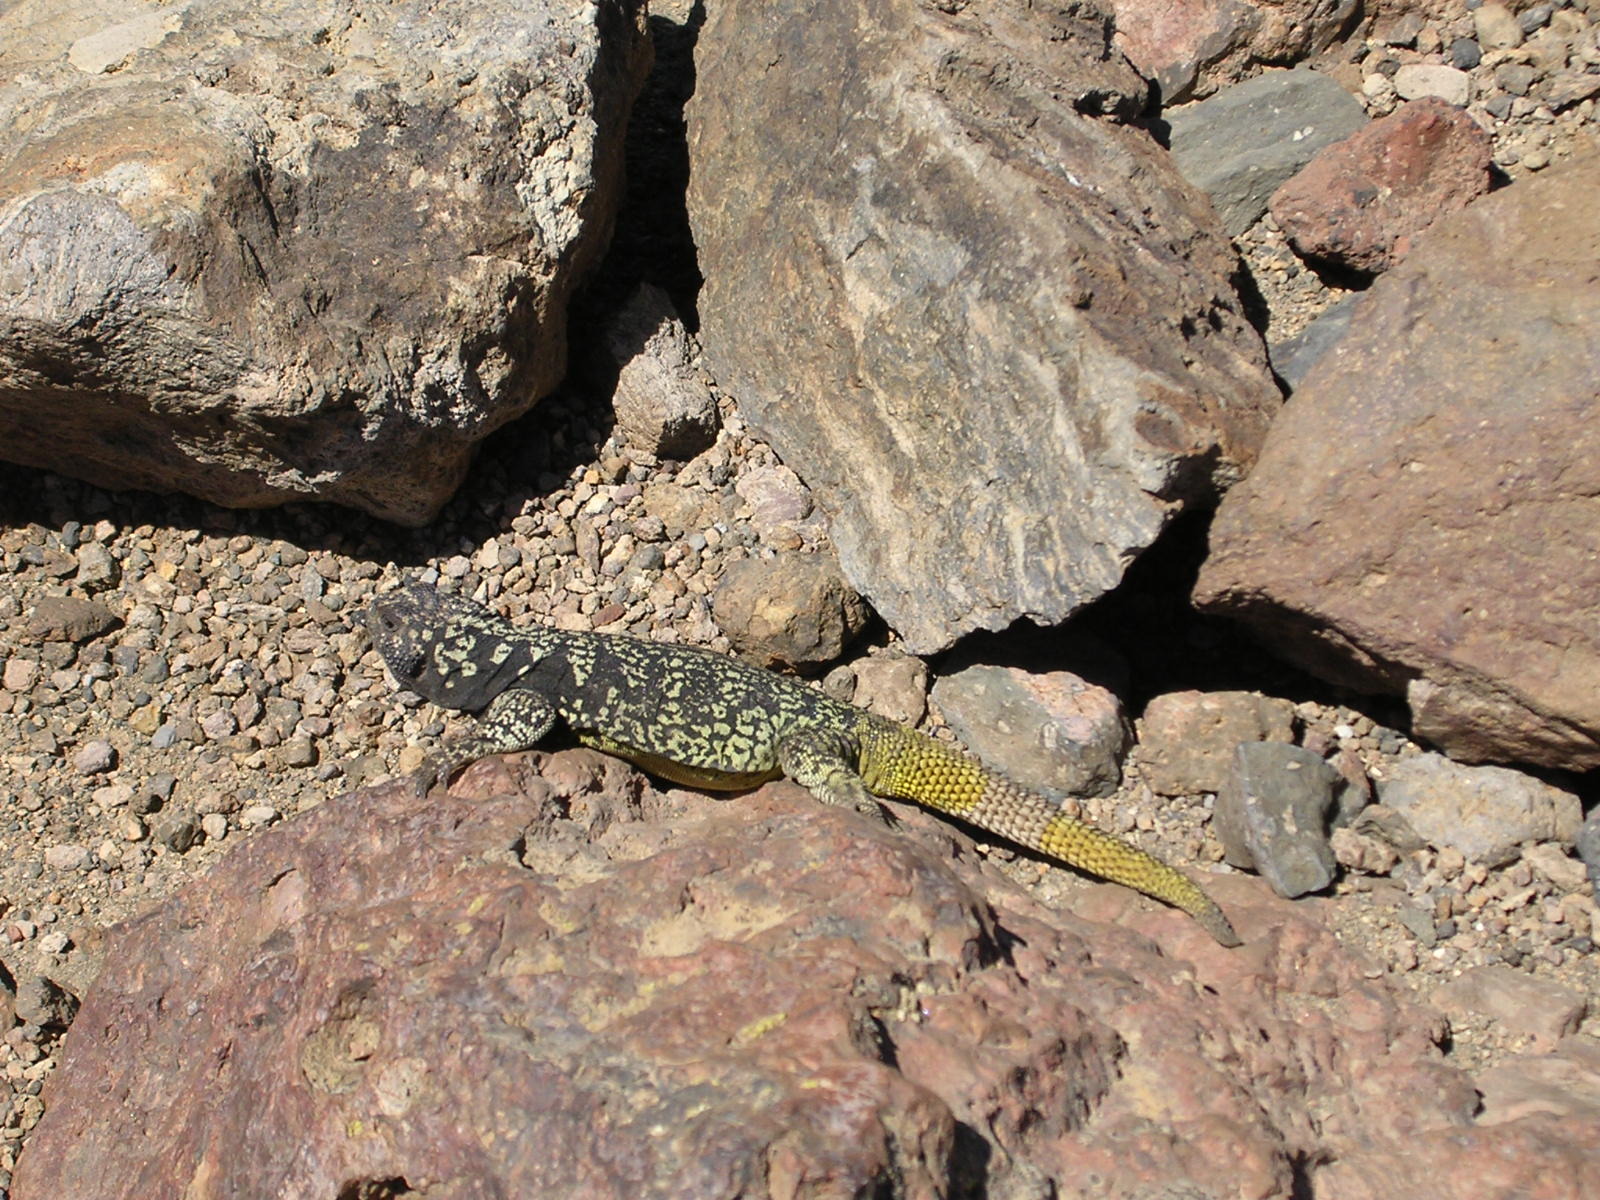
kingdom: Animalia
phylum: Chordata
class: Squamata
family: Liolaemidae
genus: Phymaturus
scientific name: Phymaturus dorsimaculatus
